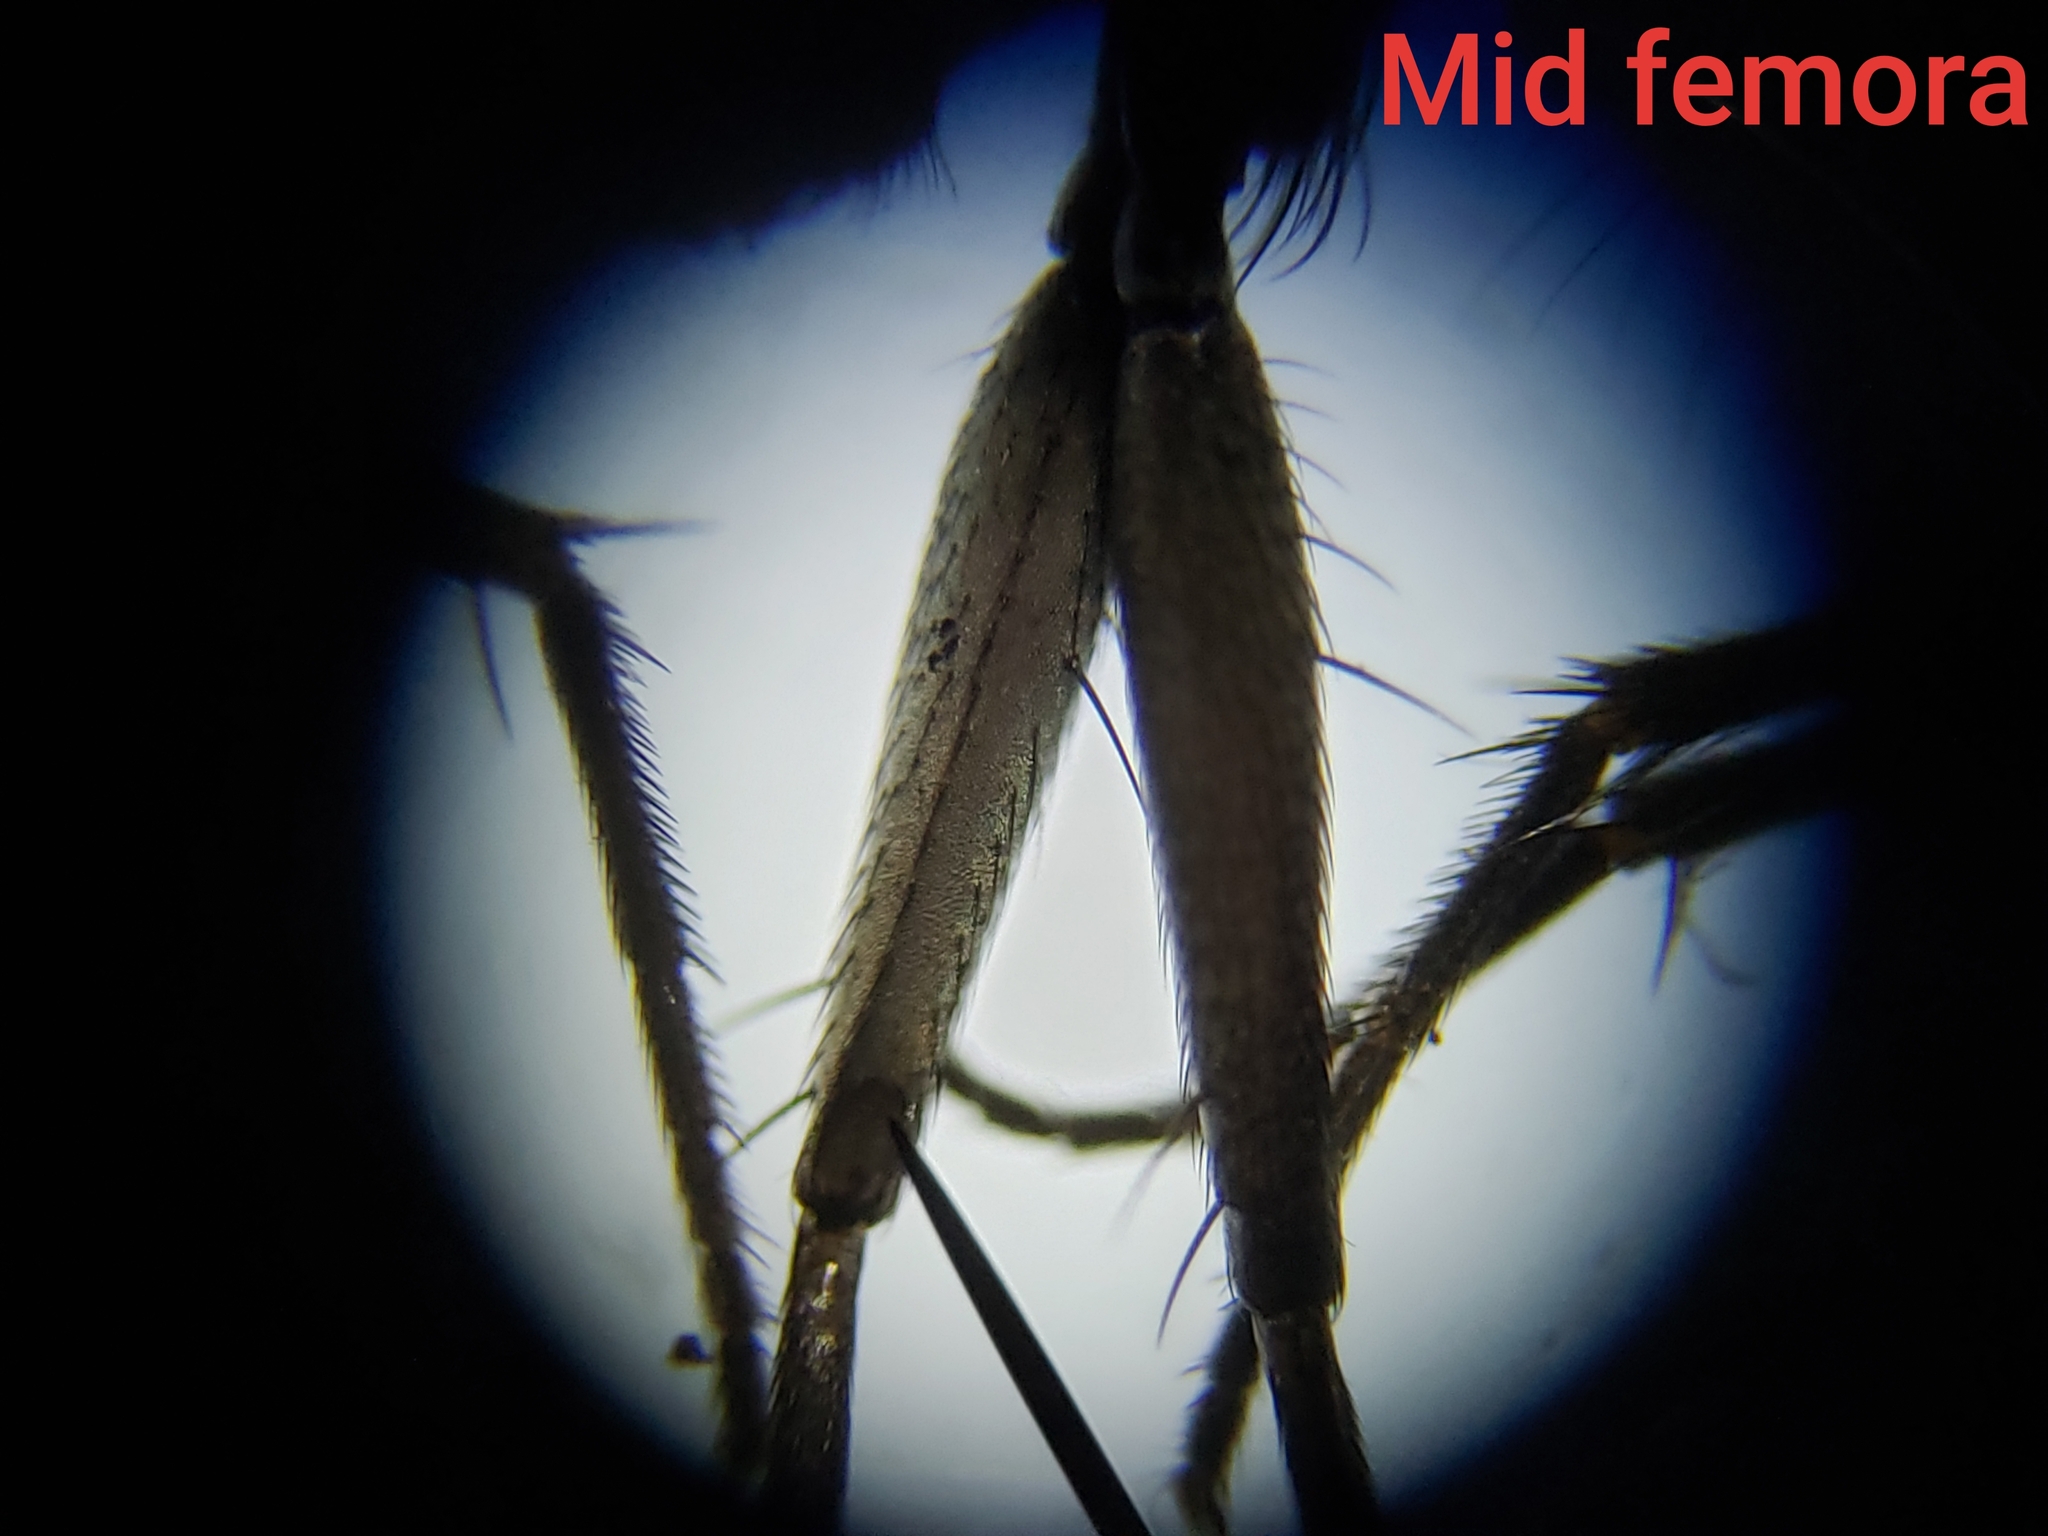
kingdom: Animalia
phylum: Arthropoda
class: Insecta
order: Diptera
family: Muscidae
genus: Lispe
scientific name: Lispe albitarsis
